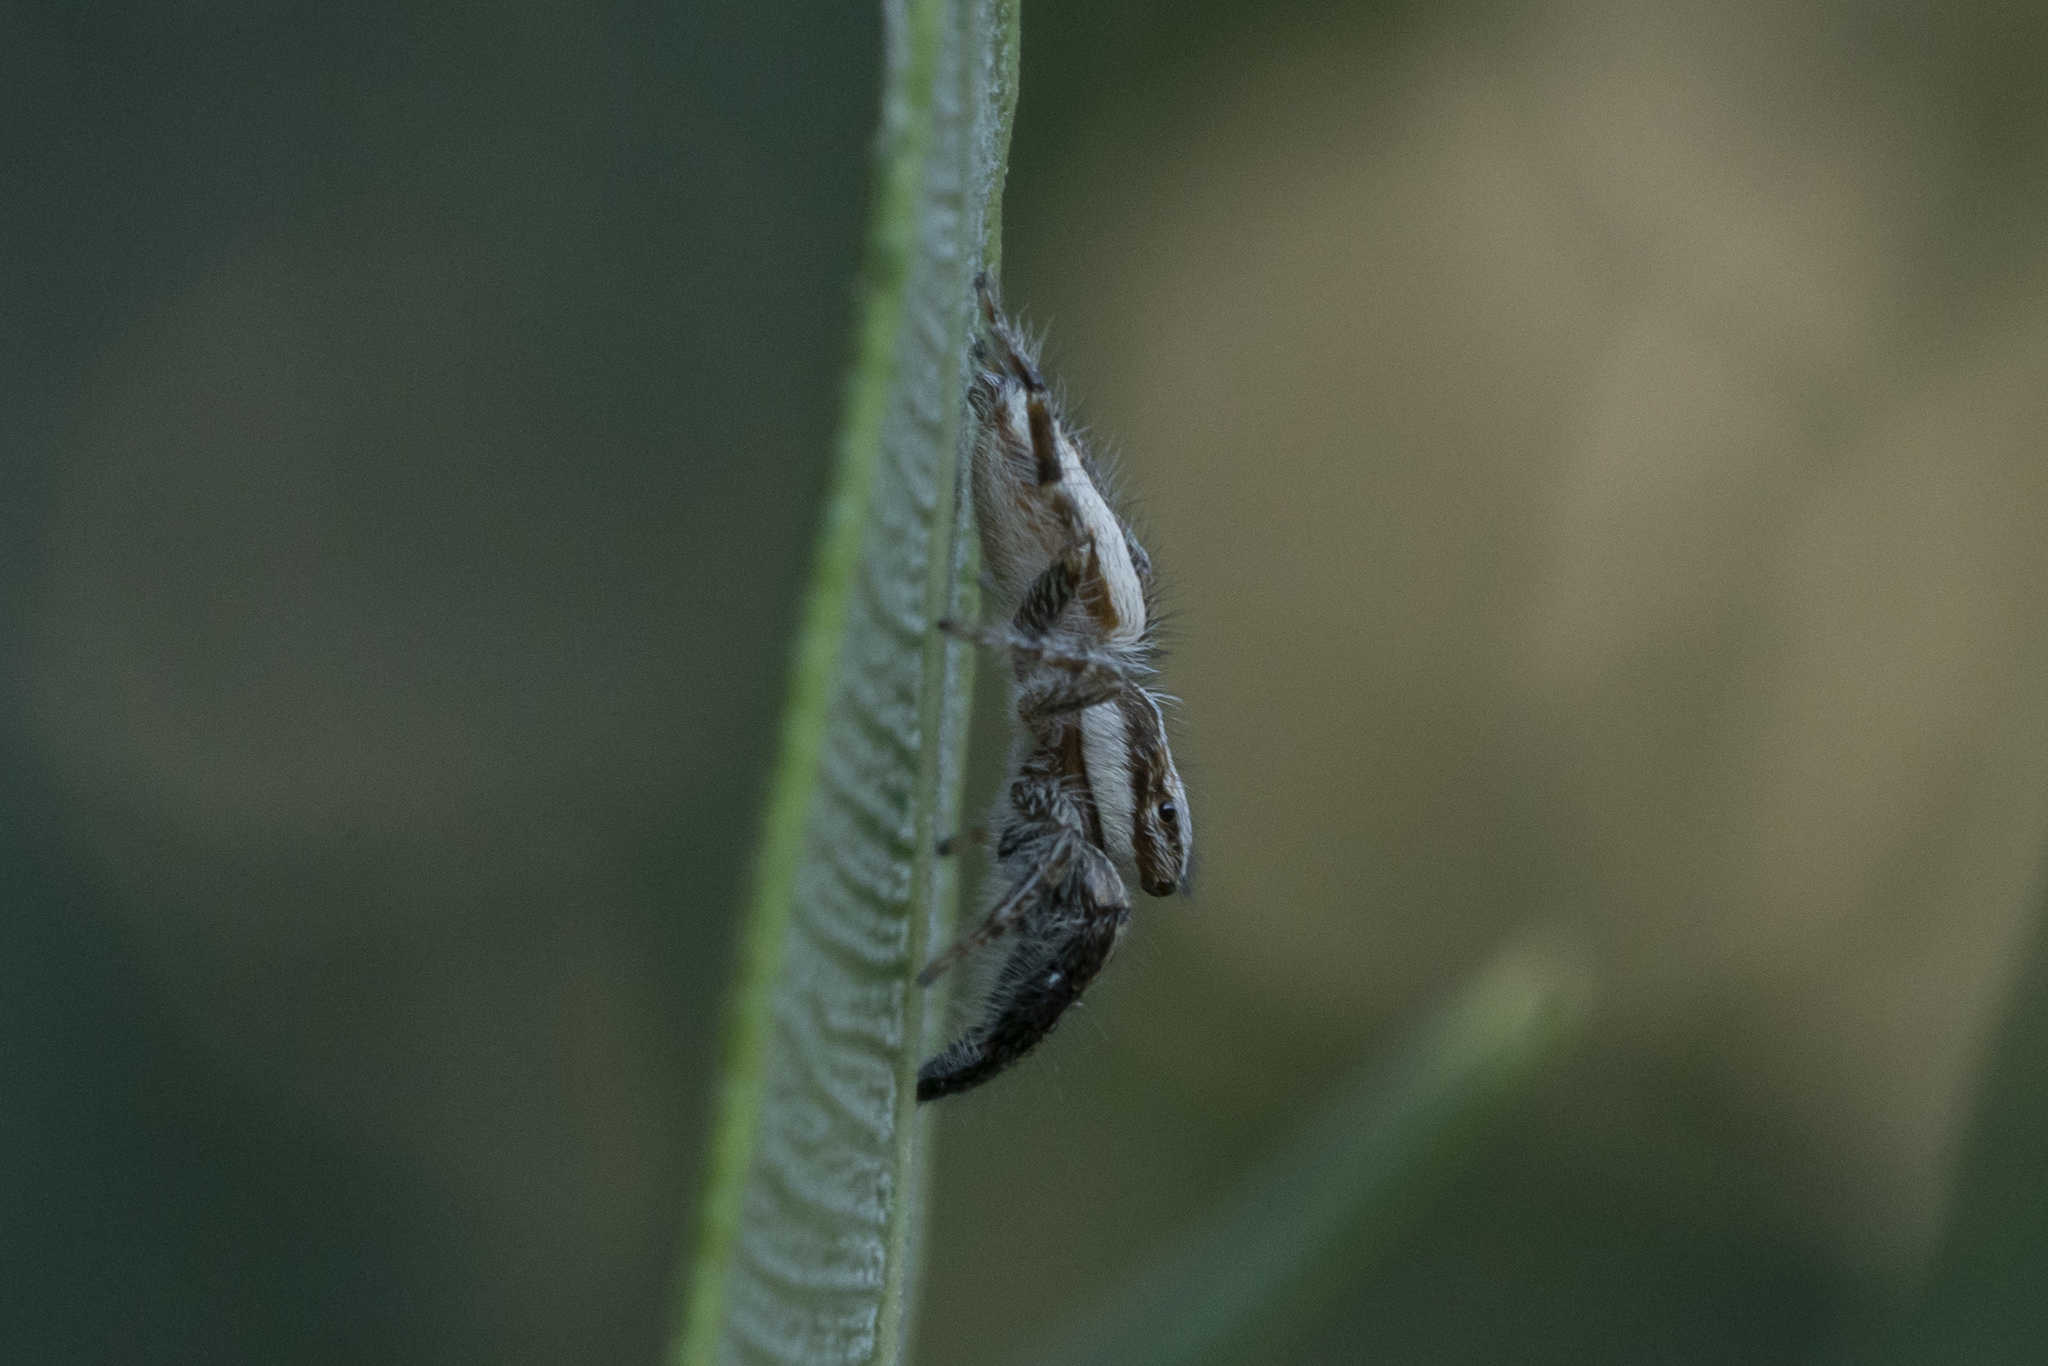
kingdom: Animalia
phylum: Arthropoda
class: Arachnida
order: Araneae
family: Salticidae
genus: Pseudicius
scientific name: Pseudicius vankeeri
